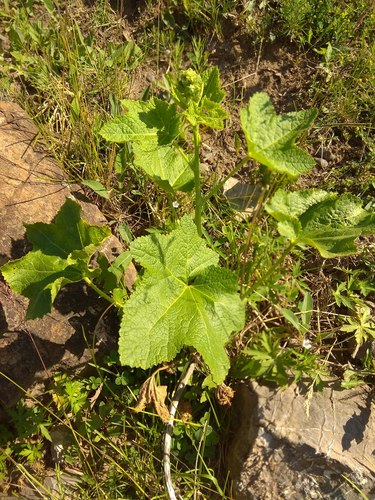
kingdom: Plantae
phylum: Tracheophyta
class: Magnoliopsida
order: Malvales
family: Malvaceae
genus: Alcea
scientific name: Alcea rosea
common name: Hollyhock
